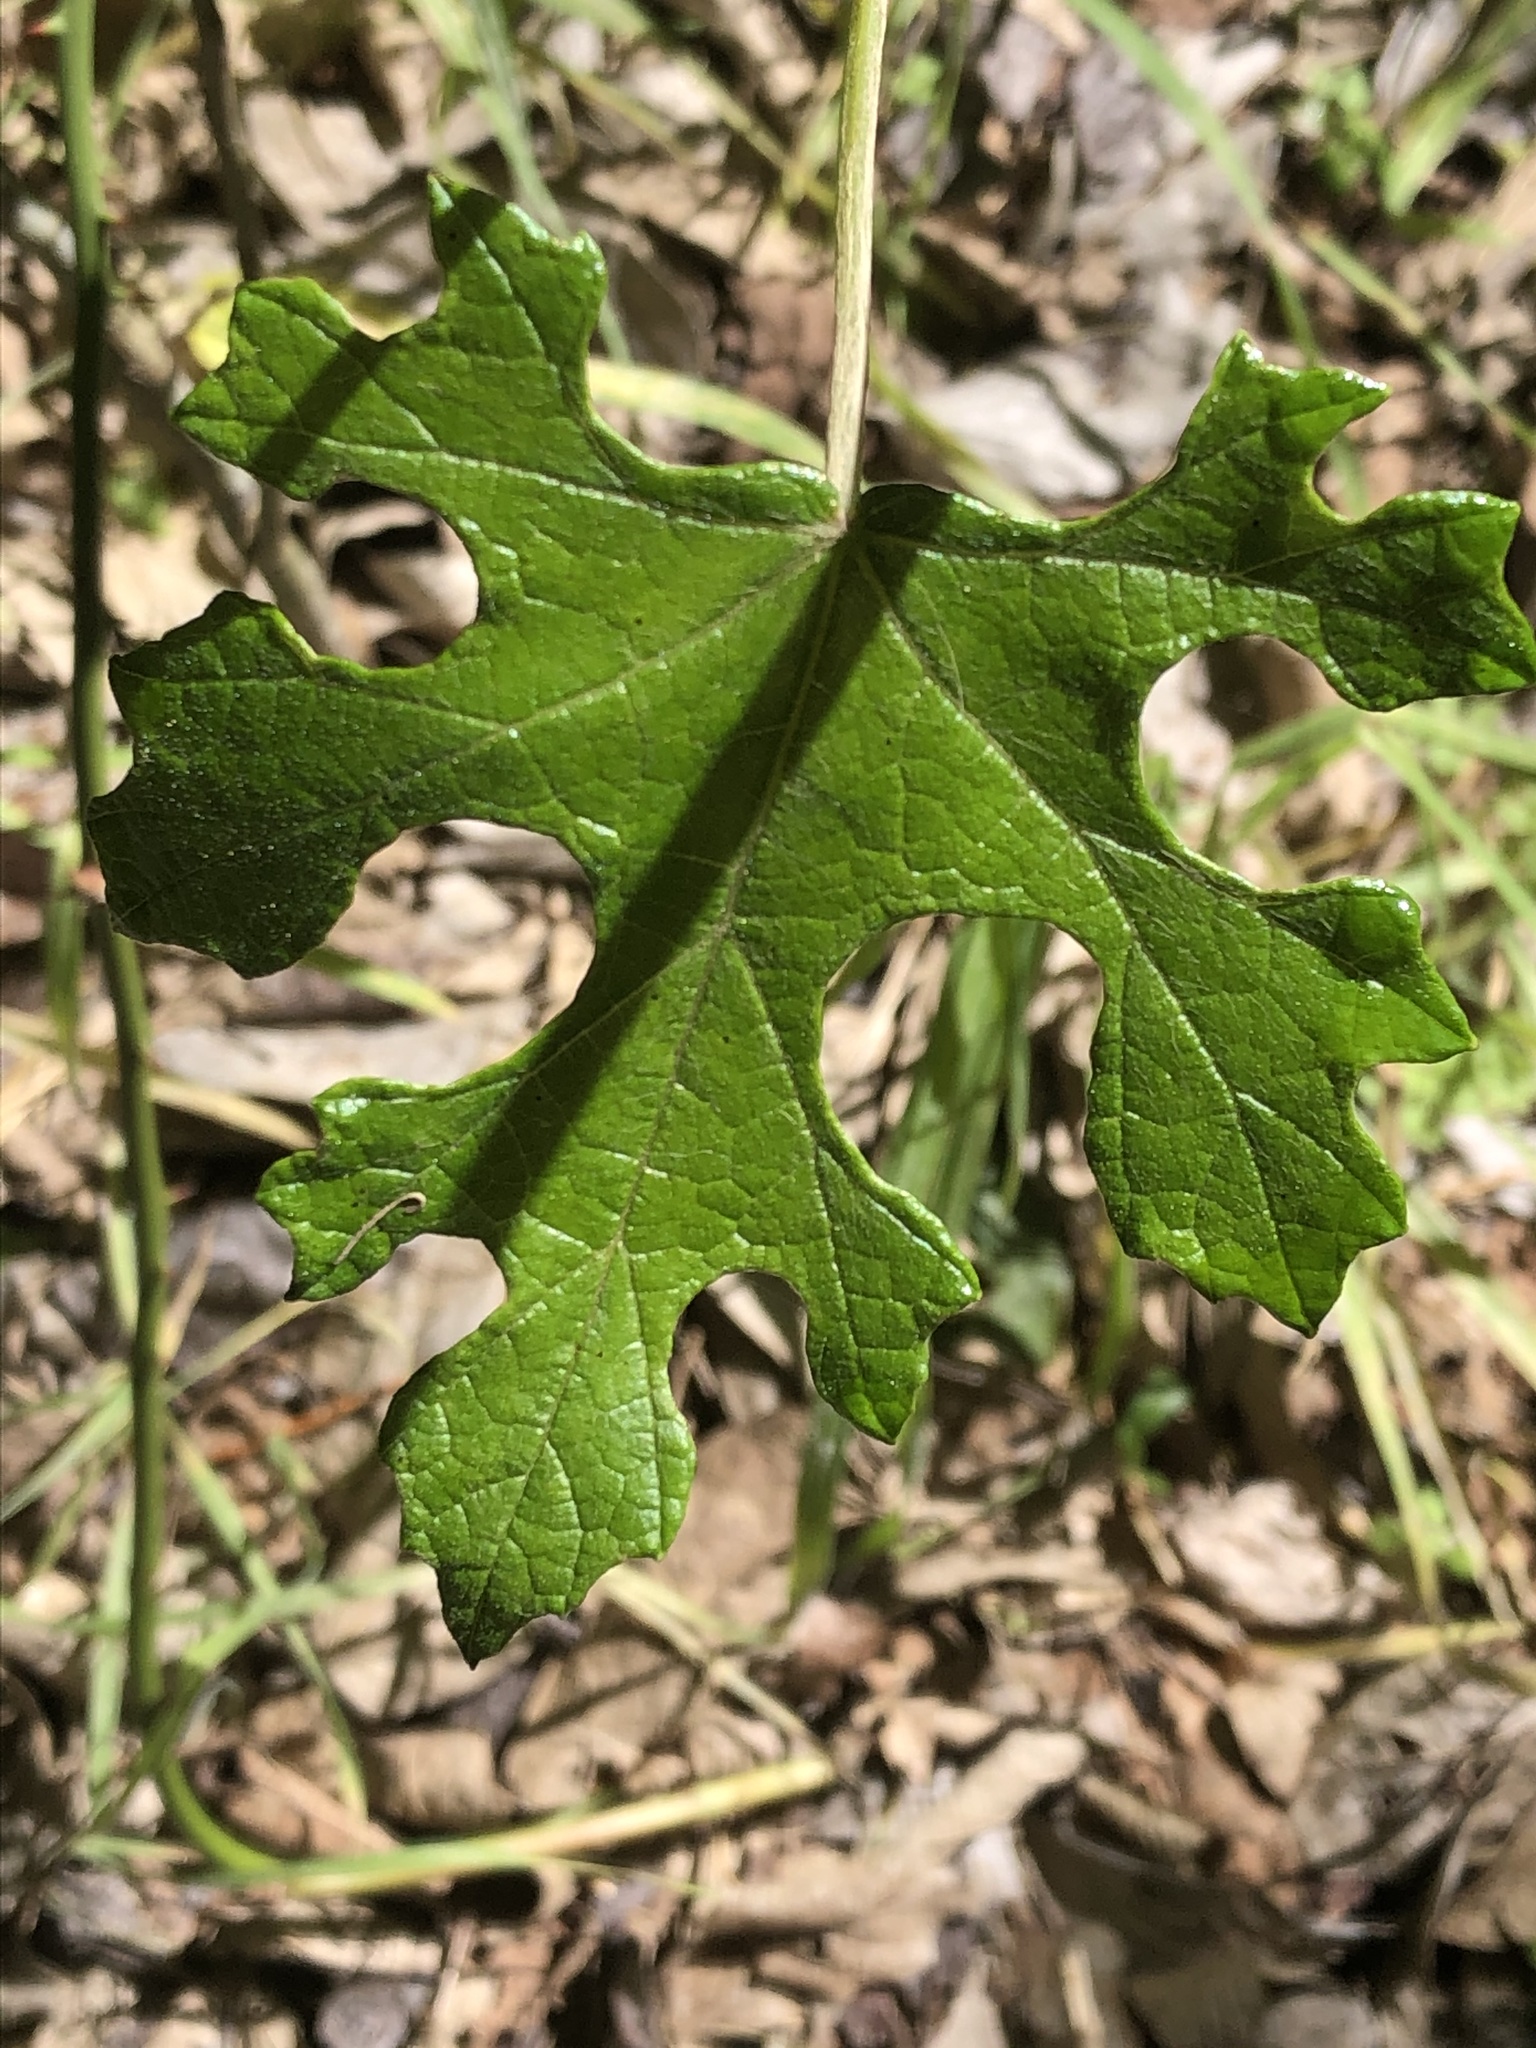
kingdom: Plantae
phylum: Tracheophyta
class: Magnoliopsida
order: Vitales
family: Vitaceae
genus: Vitis
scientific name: Vitis mustangensis
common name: Mustang grape
